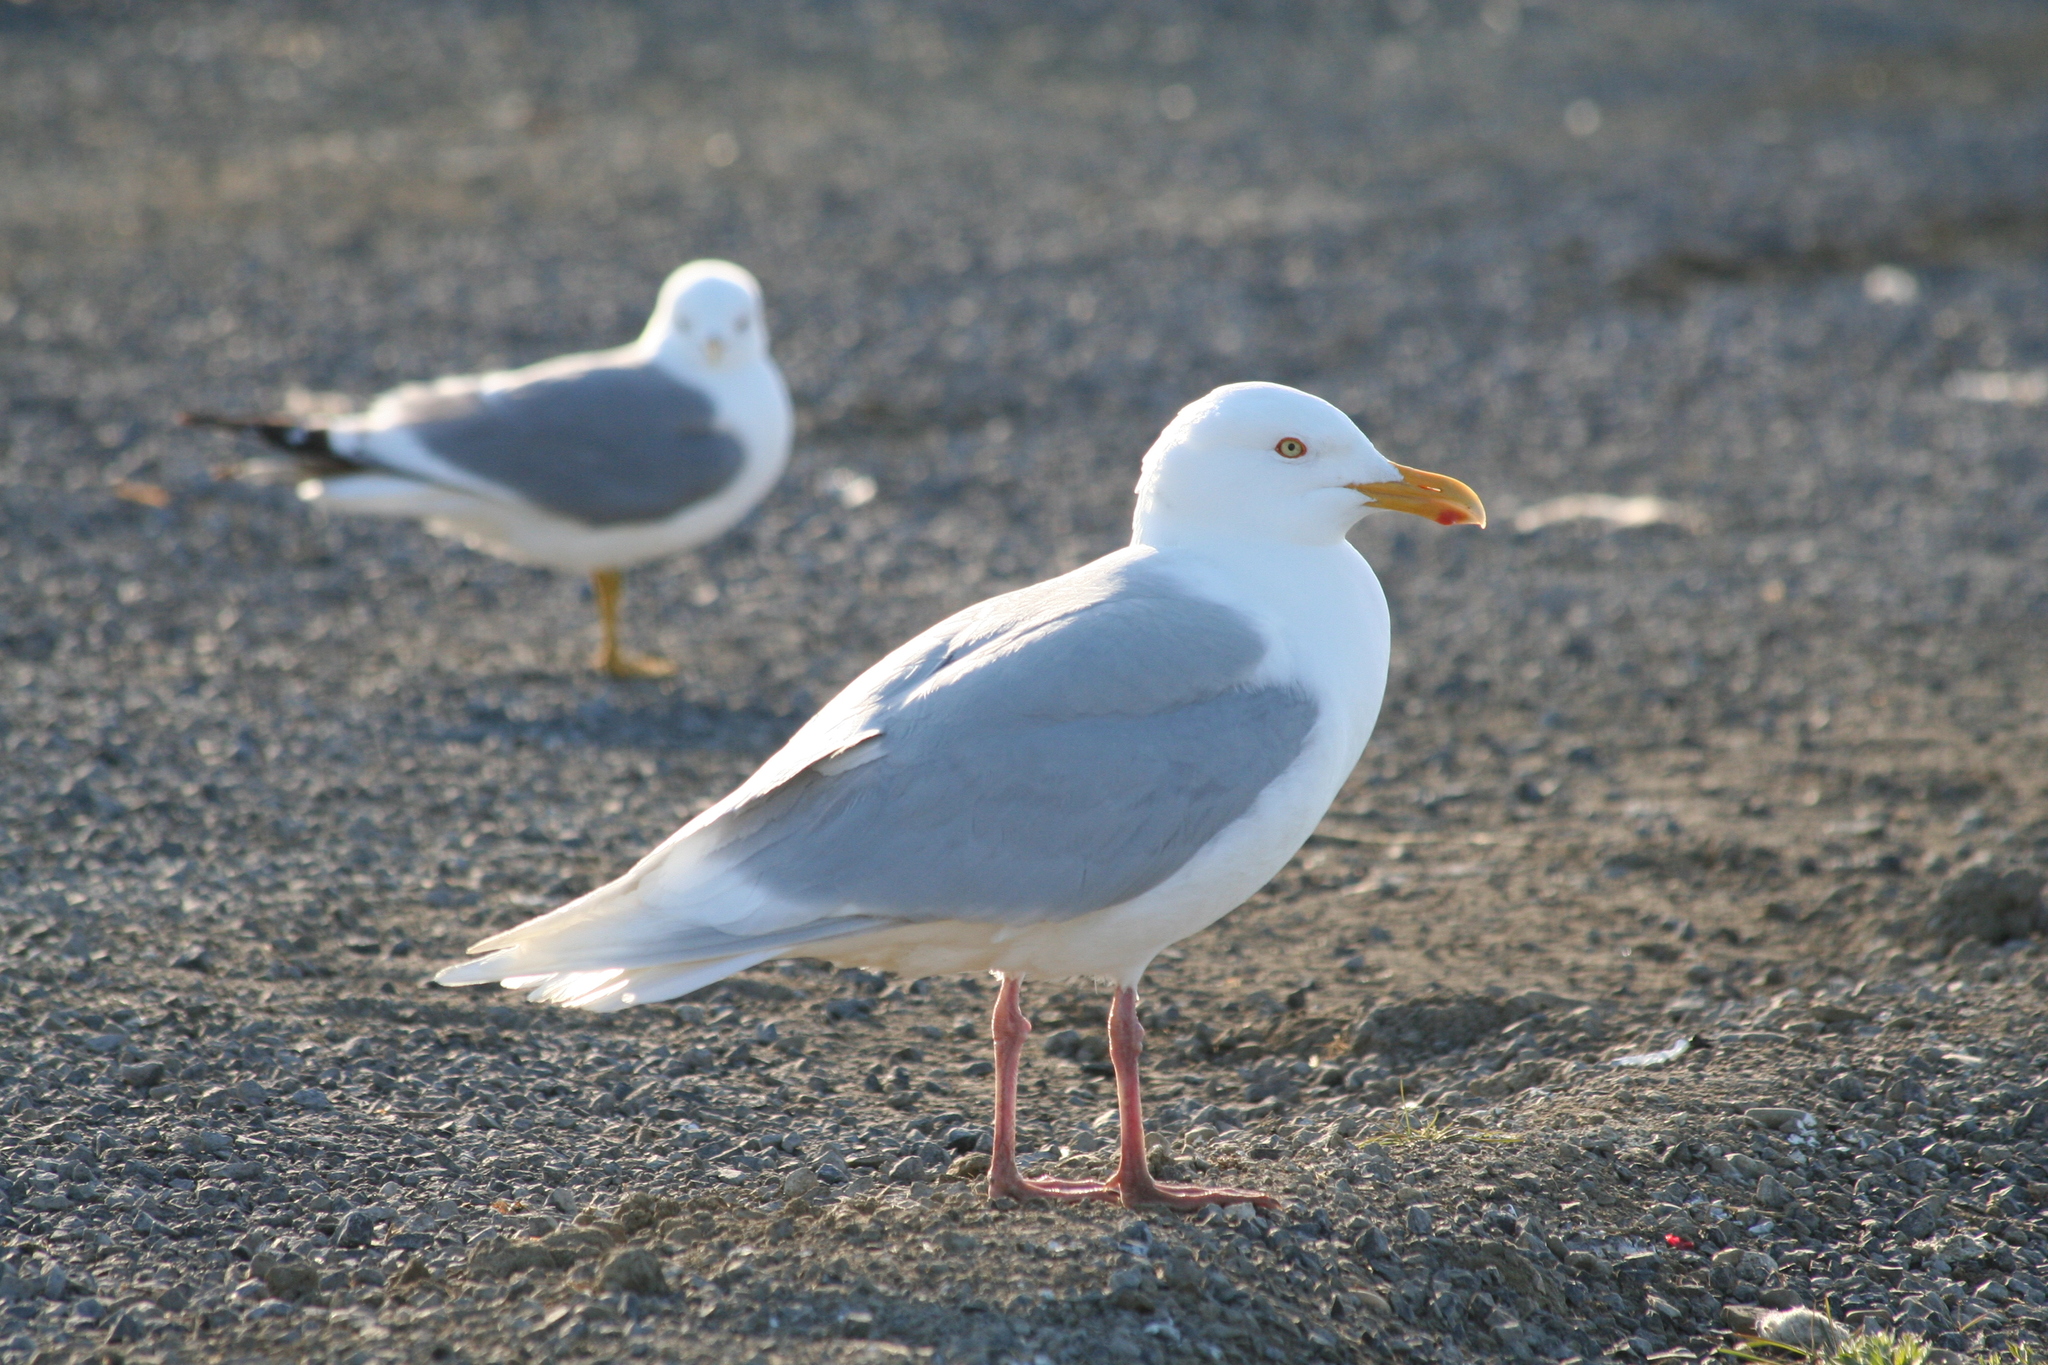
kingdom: Animalia
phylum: Chordata
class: Aves
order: Charadriiformes
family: Laridae
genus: Larus
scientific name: Larus hyperboreus
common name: Glaucous gull
